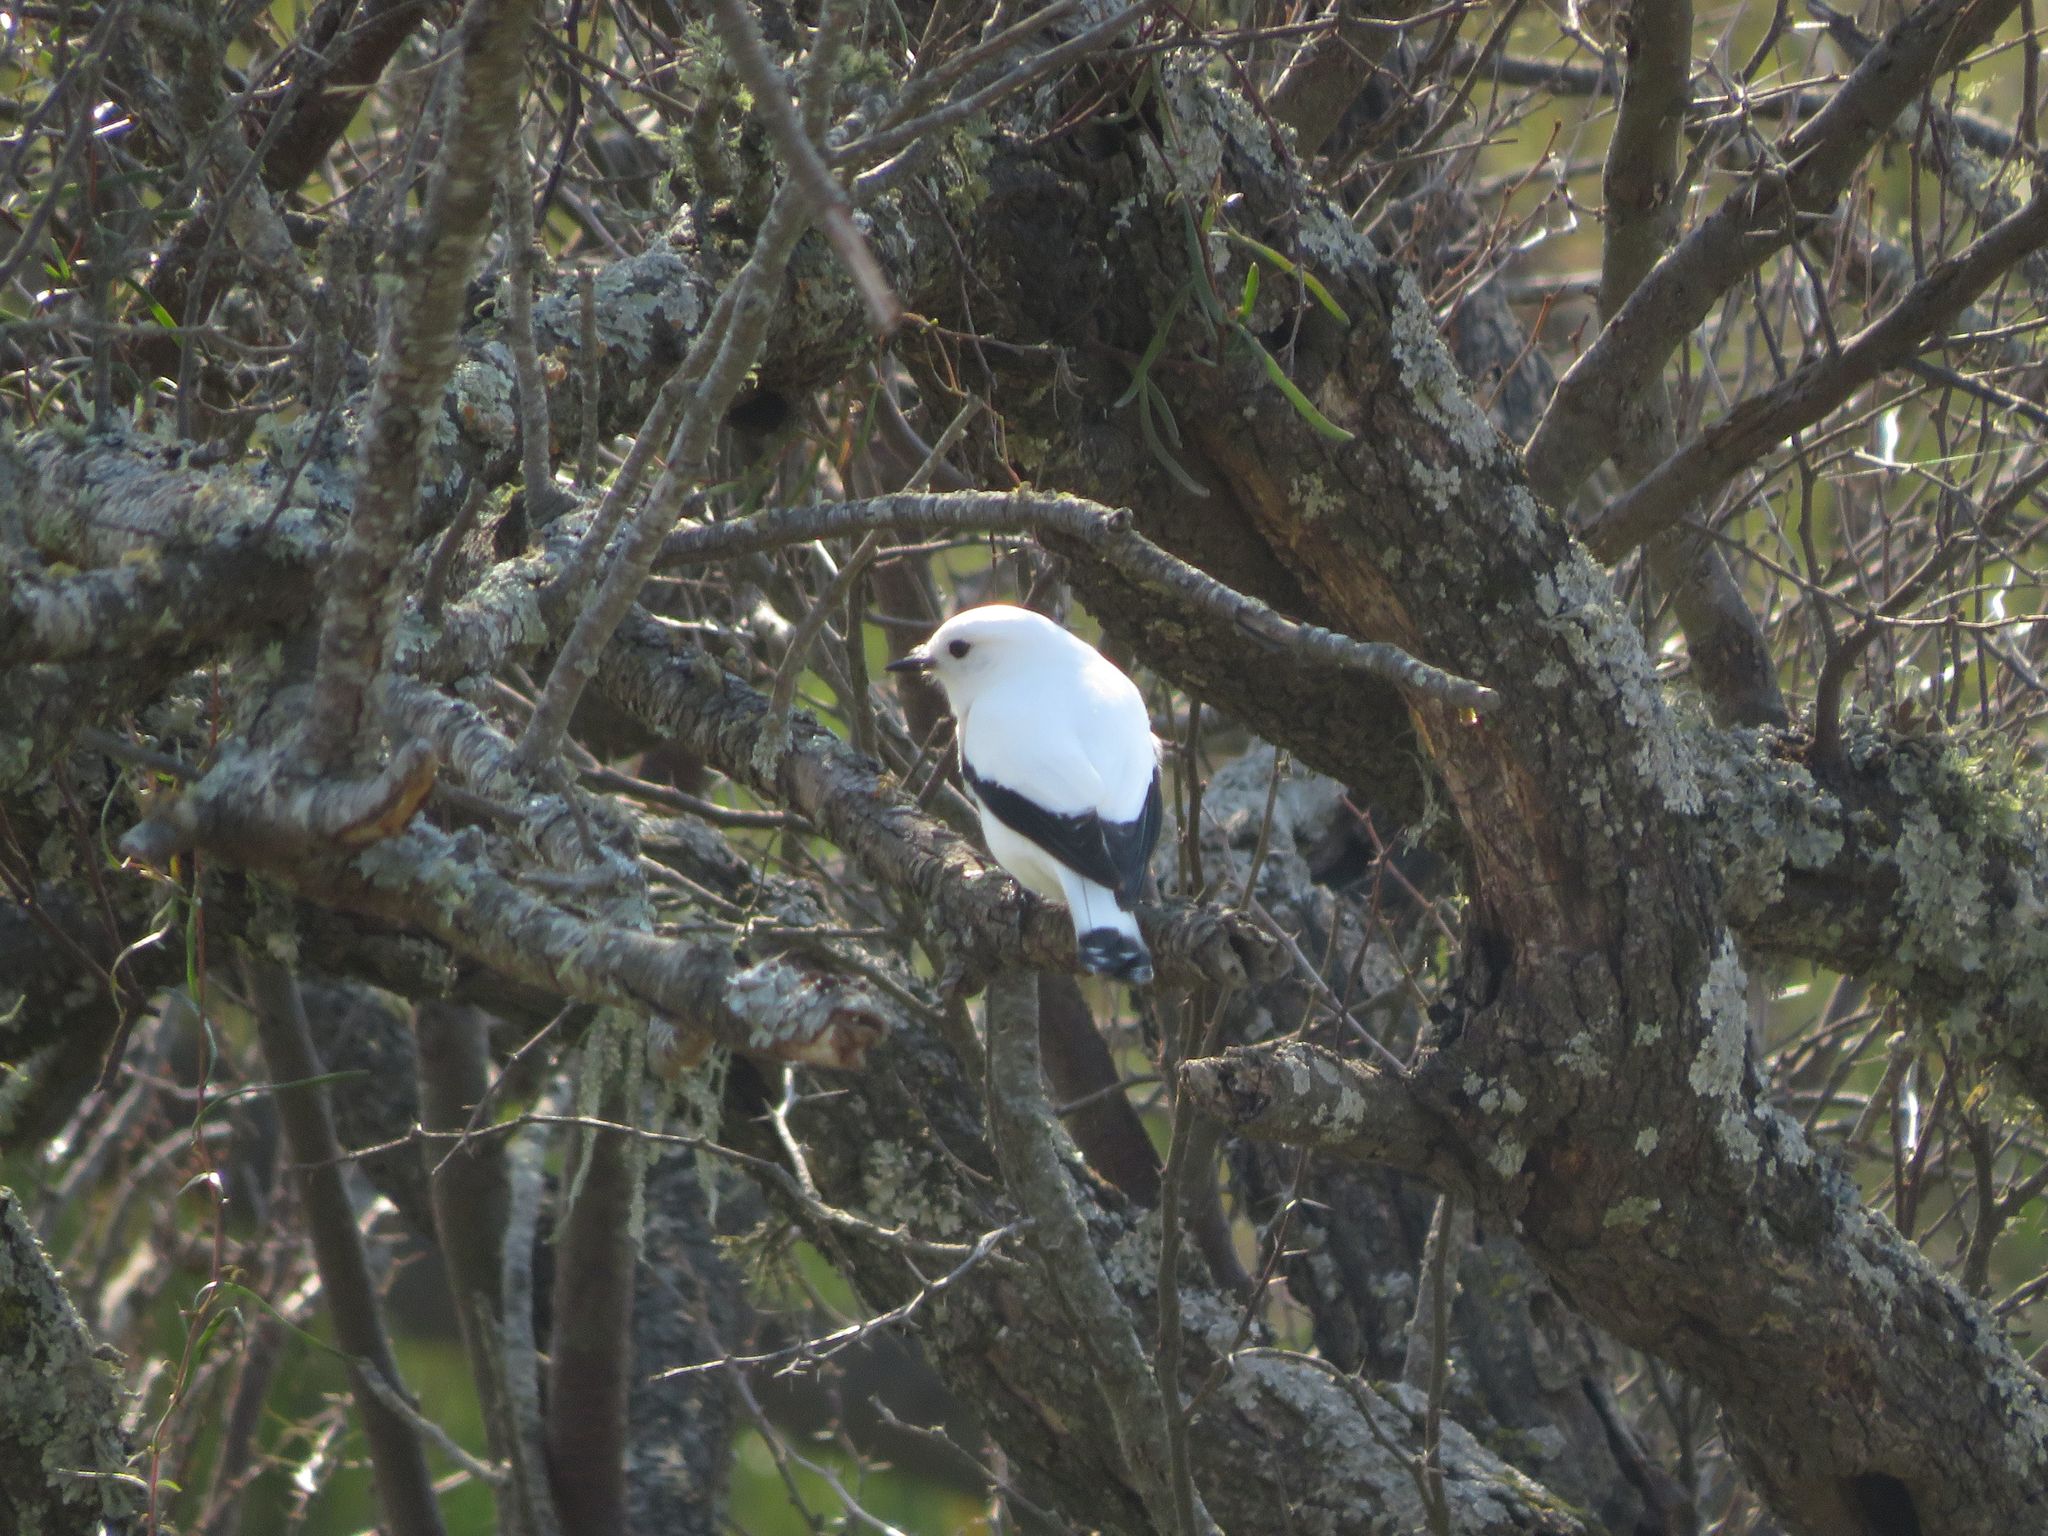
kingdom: Animalia
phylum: Chordata
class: Aves
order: Passeriformes
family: Tyrannidae
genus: Xolmis
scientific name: Xolmis irupero
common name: White monjita
